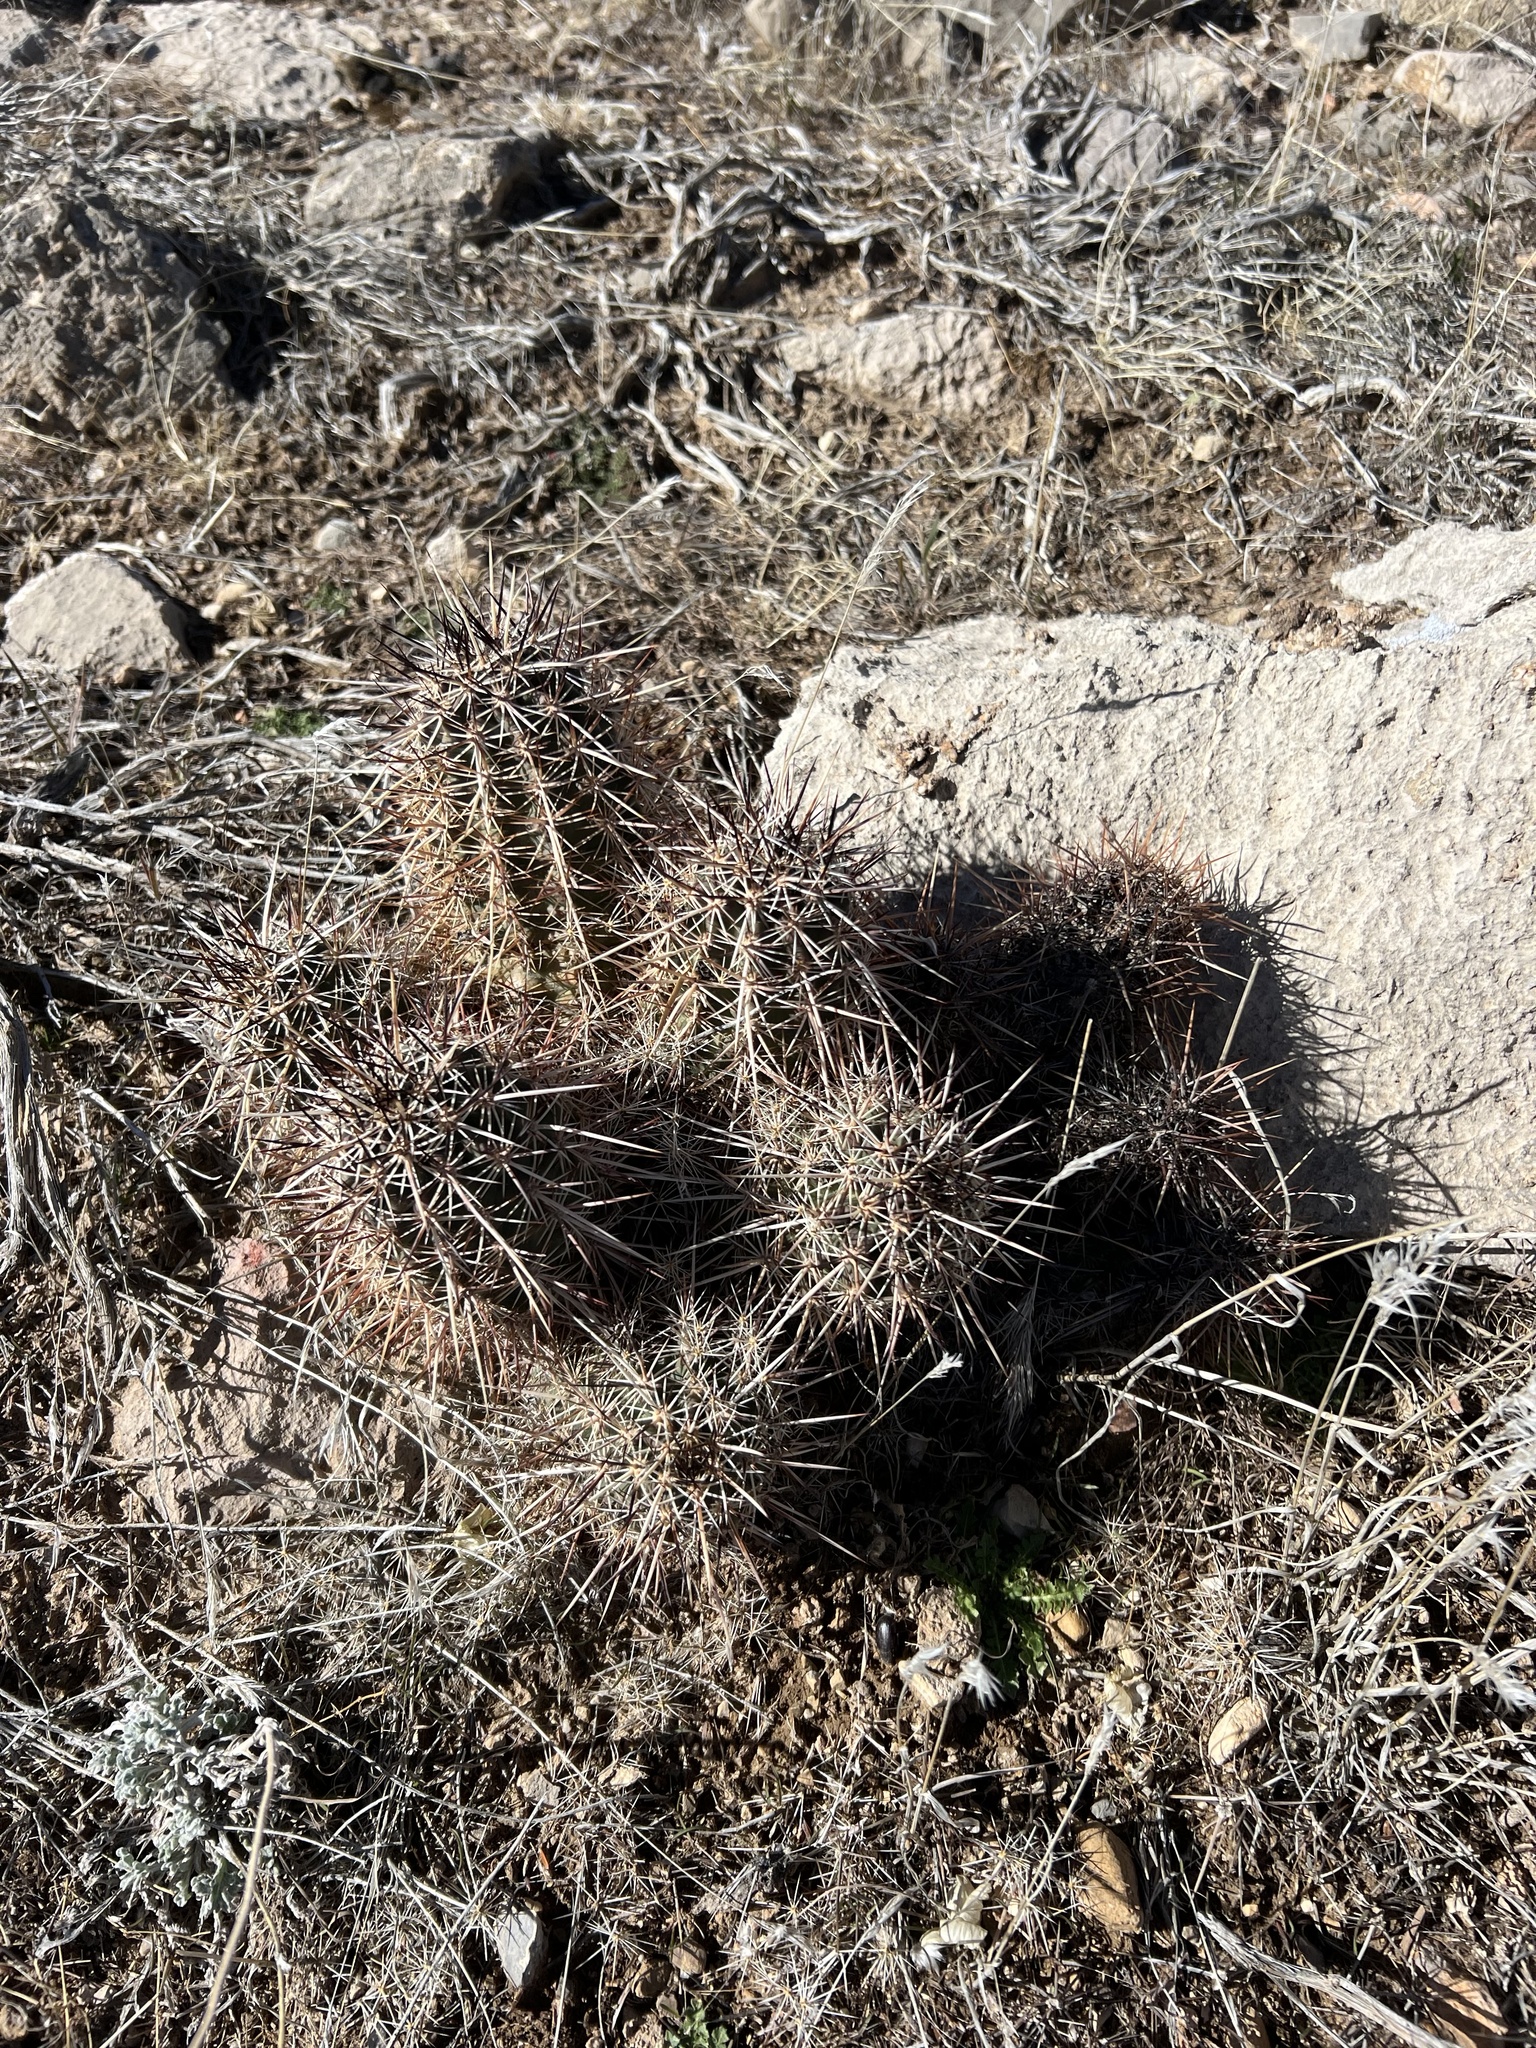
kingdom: Plantae
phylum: Tracheophyta
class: Magnoliopsida
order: Caryophyllales
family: Cactaceae
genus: Echinocereus
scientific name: Echinocereus engelmannii
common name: Engelmann's hedgehog cactus
